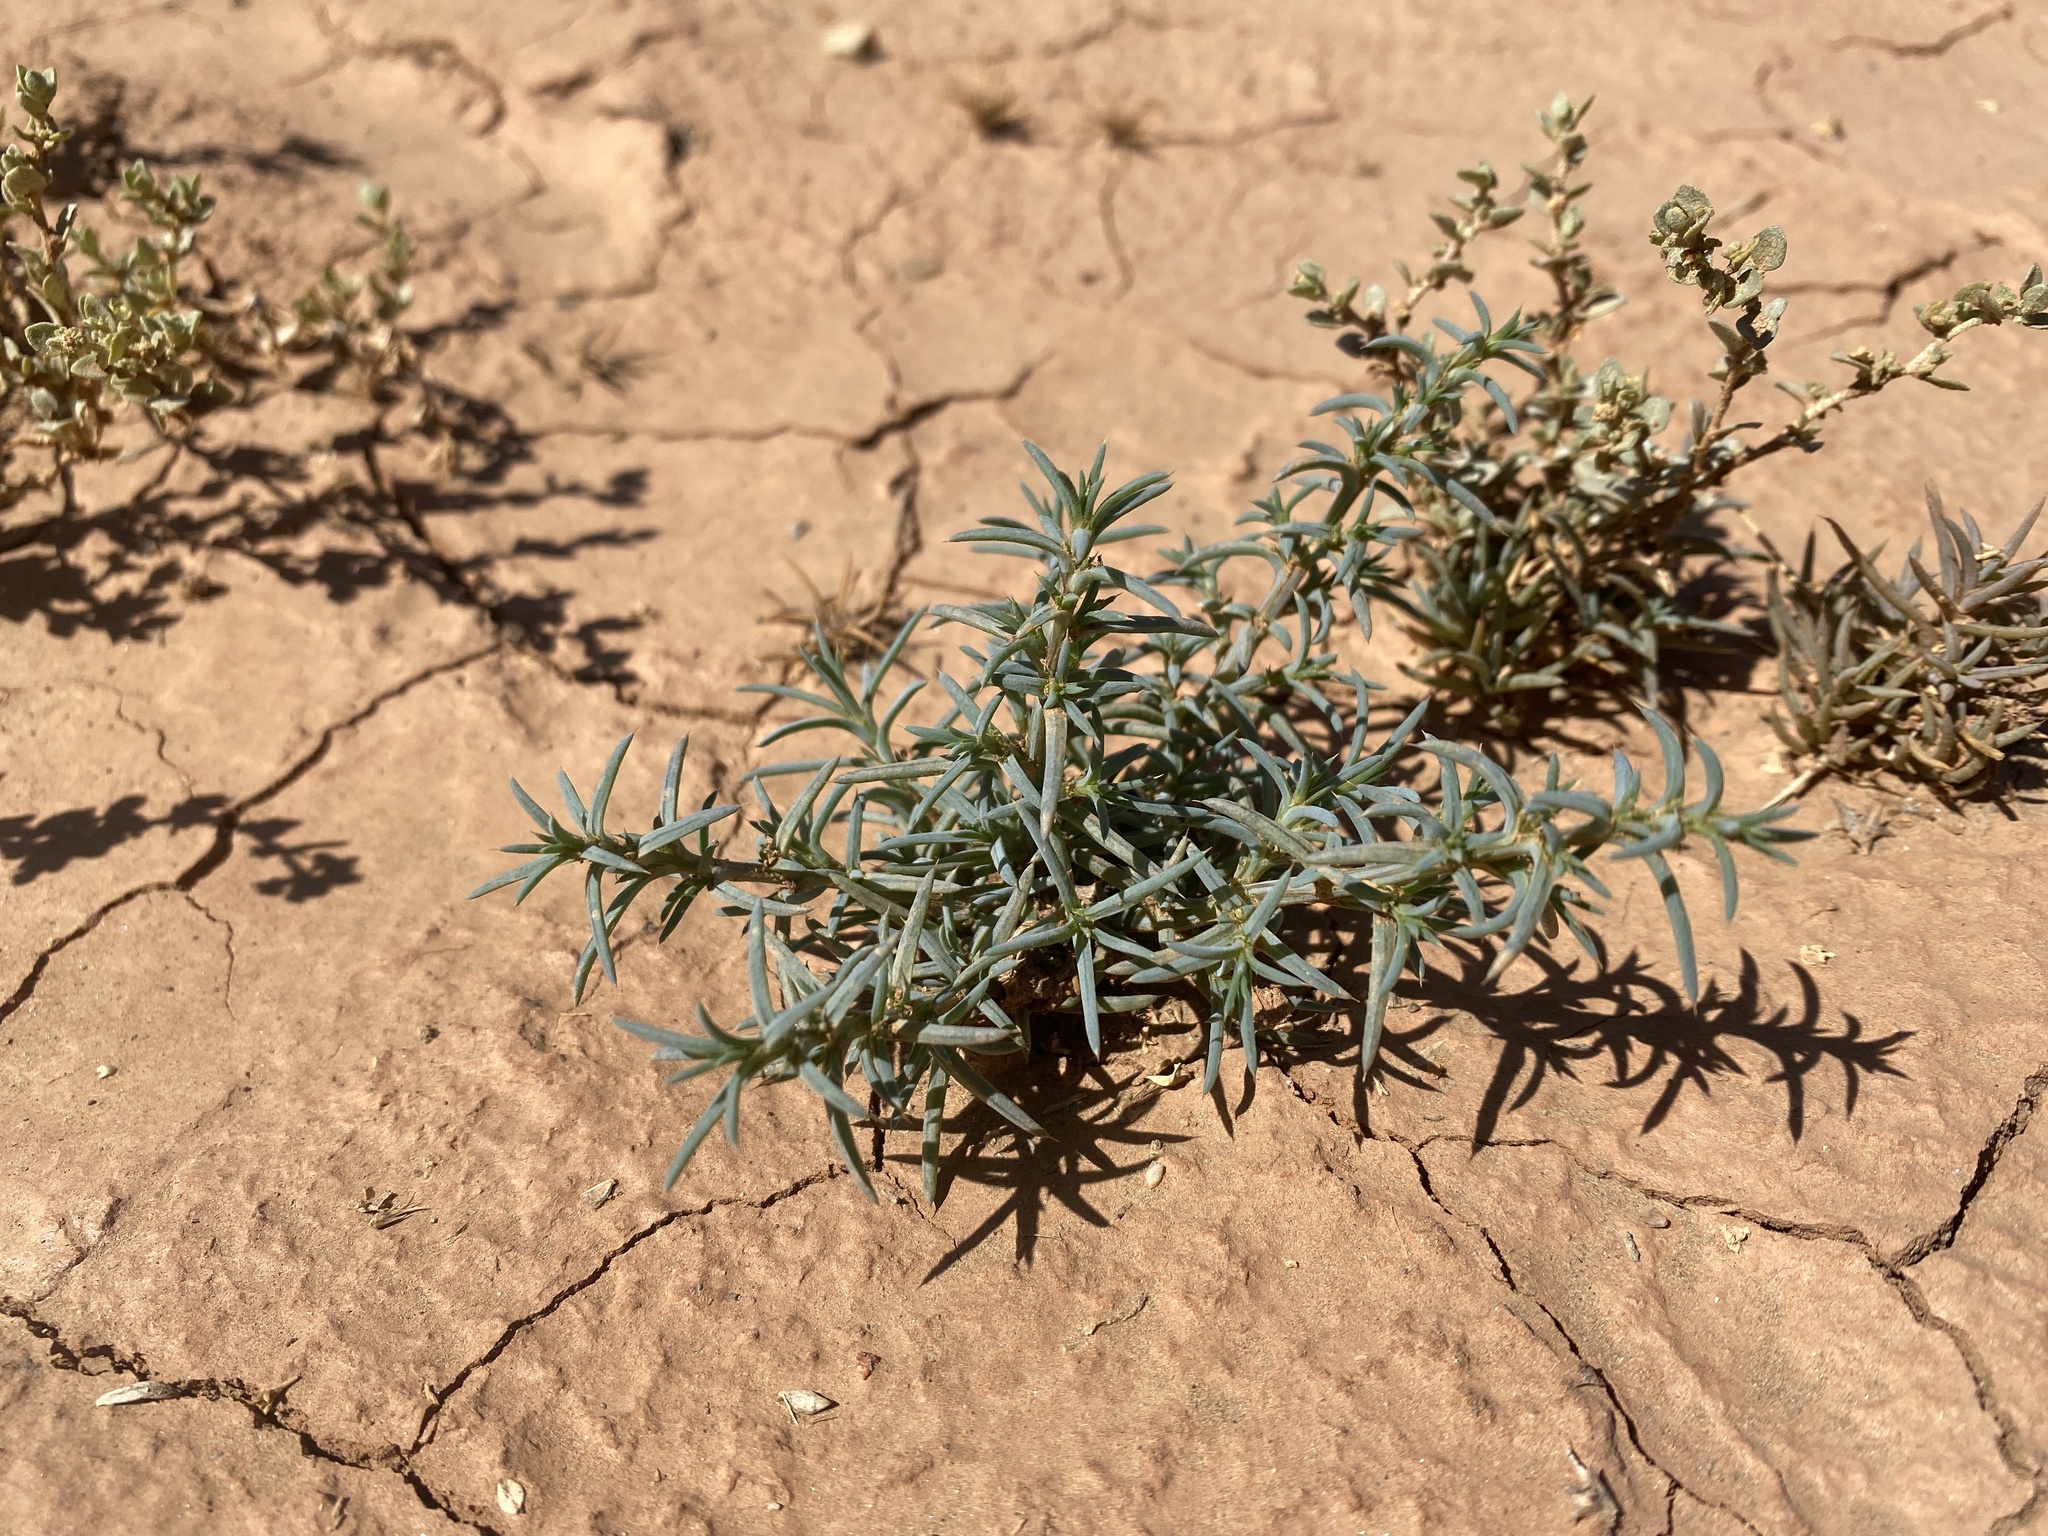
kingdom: Plantae
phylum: Tracheophyta
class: Magnoliopsida
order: Caryophyllales
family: Amaranthaceae
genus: Salsola
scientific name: Salsola kali
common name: Saltwort
